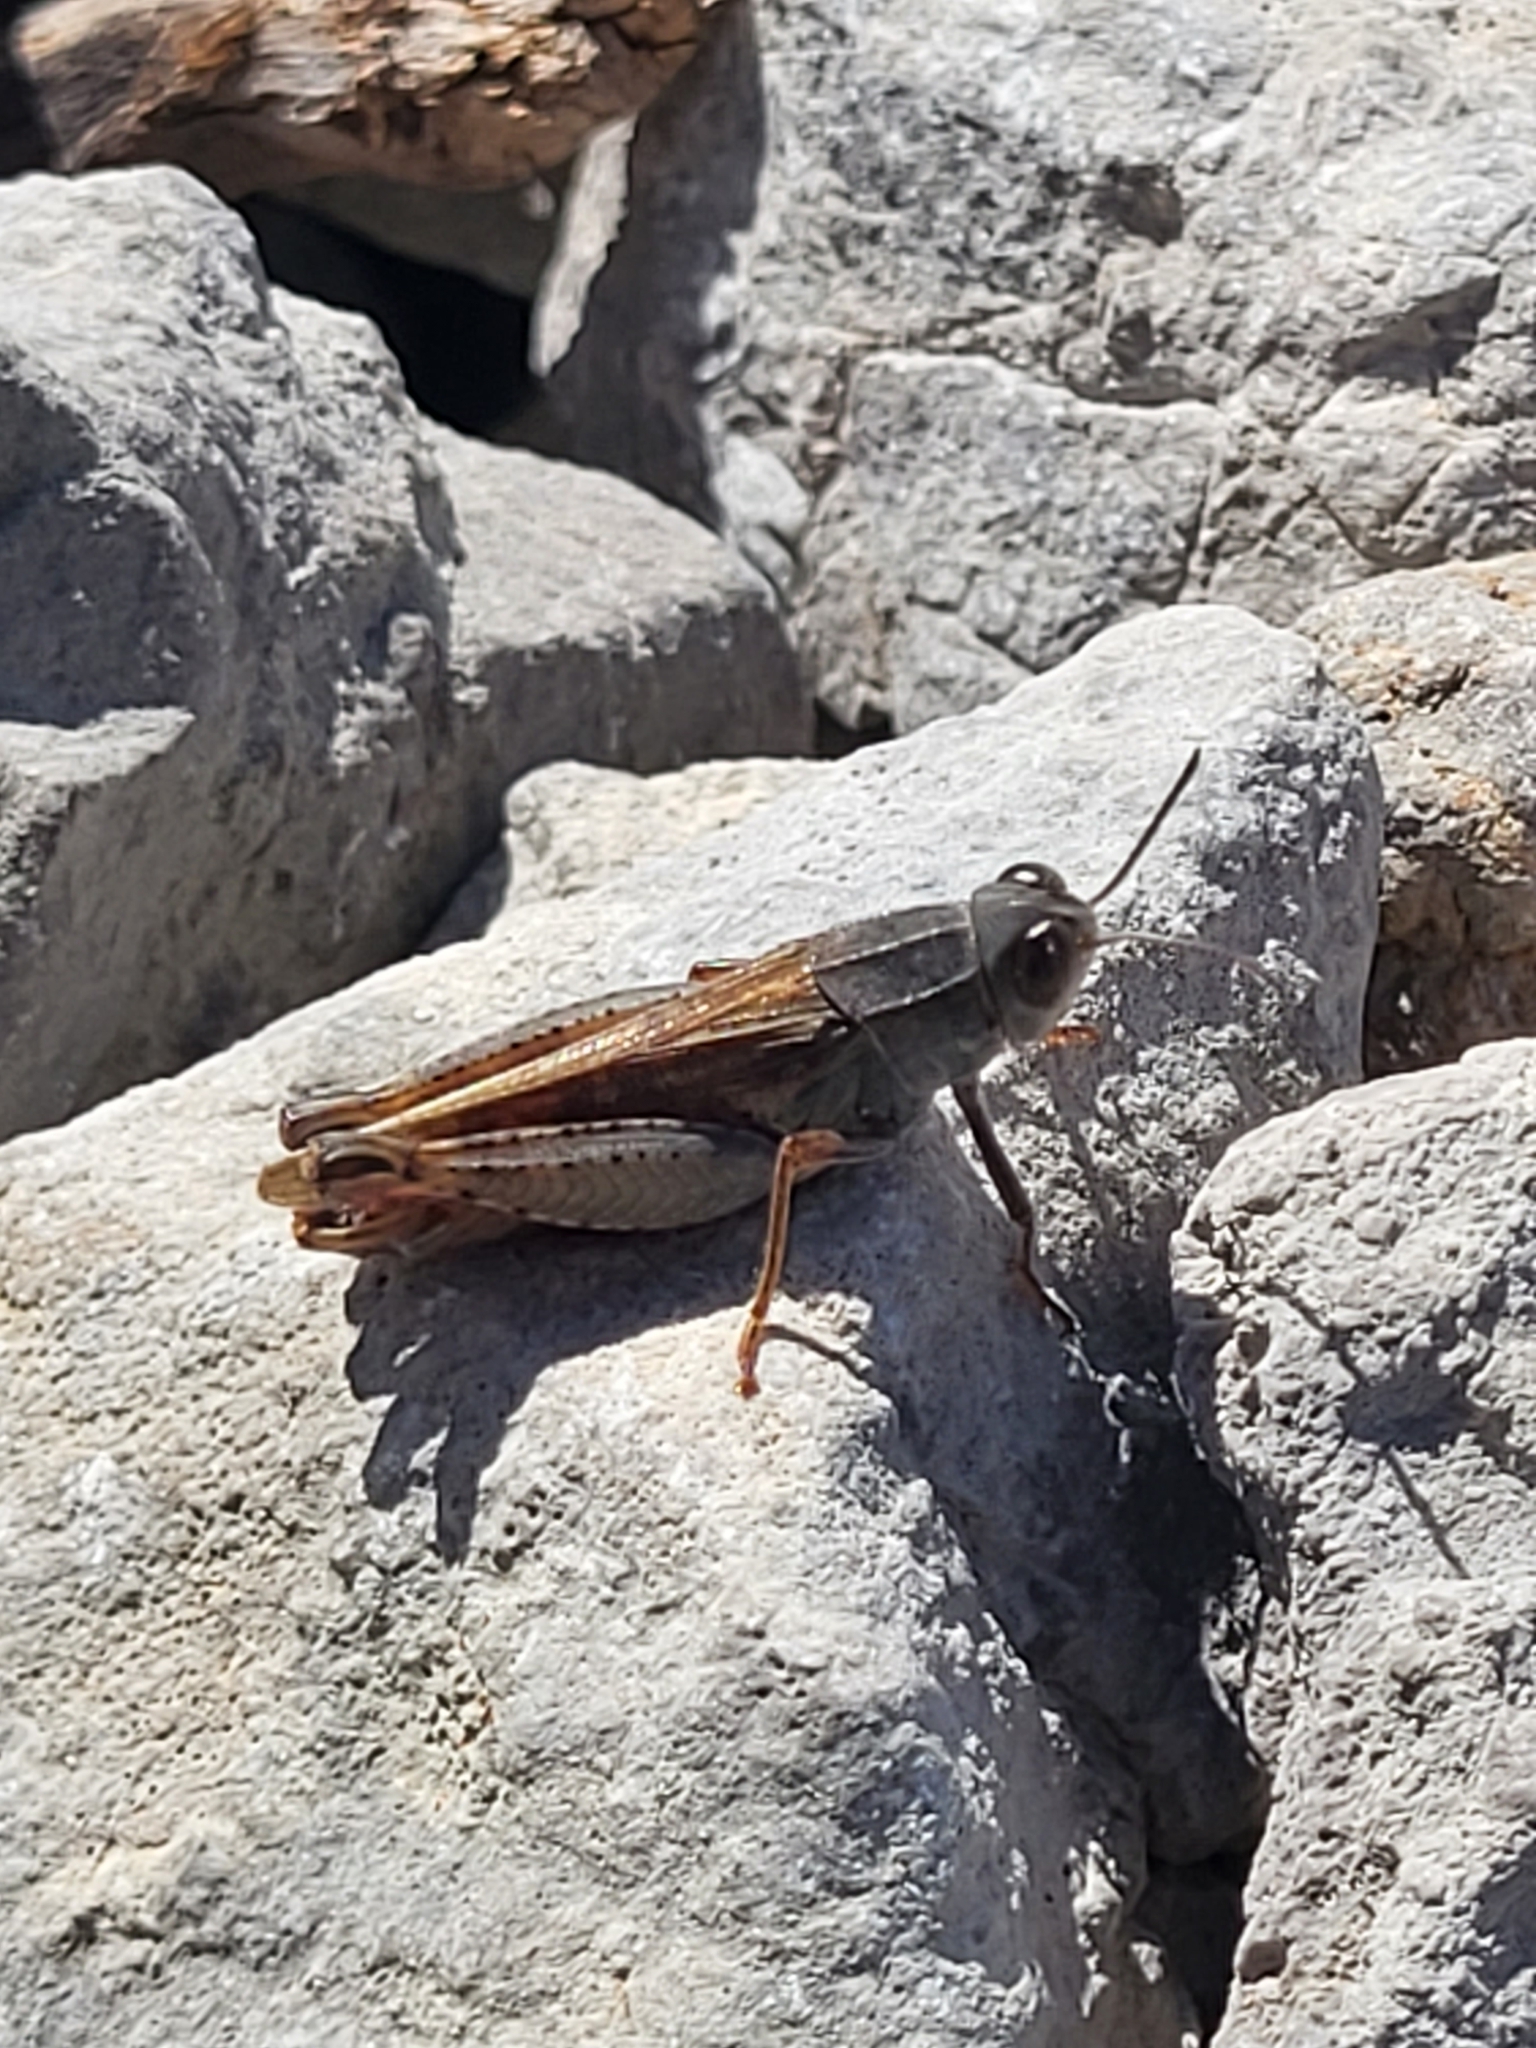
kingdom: Animalia
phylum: Arthropoda
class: Insecta
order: Orthoptera
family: Acrididae
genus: Calliptamus
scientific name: Calliptamus italicus
